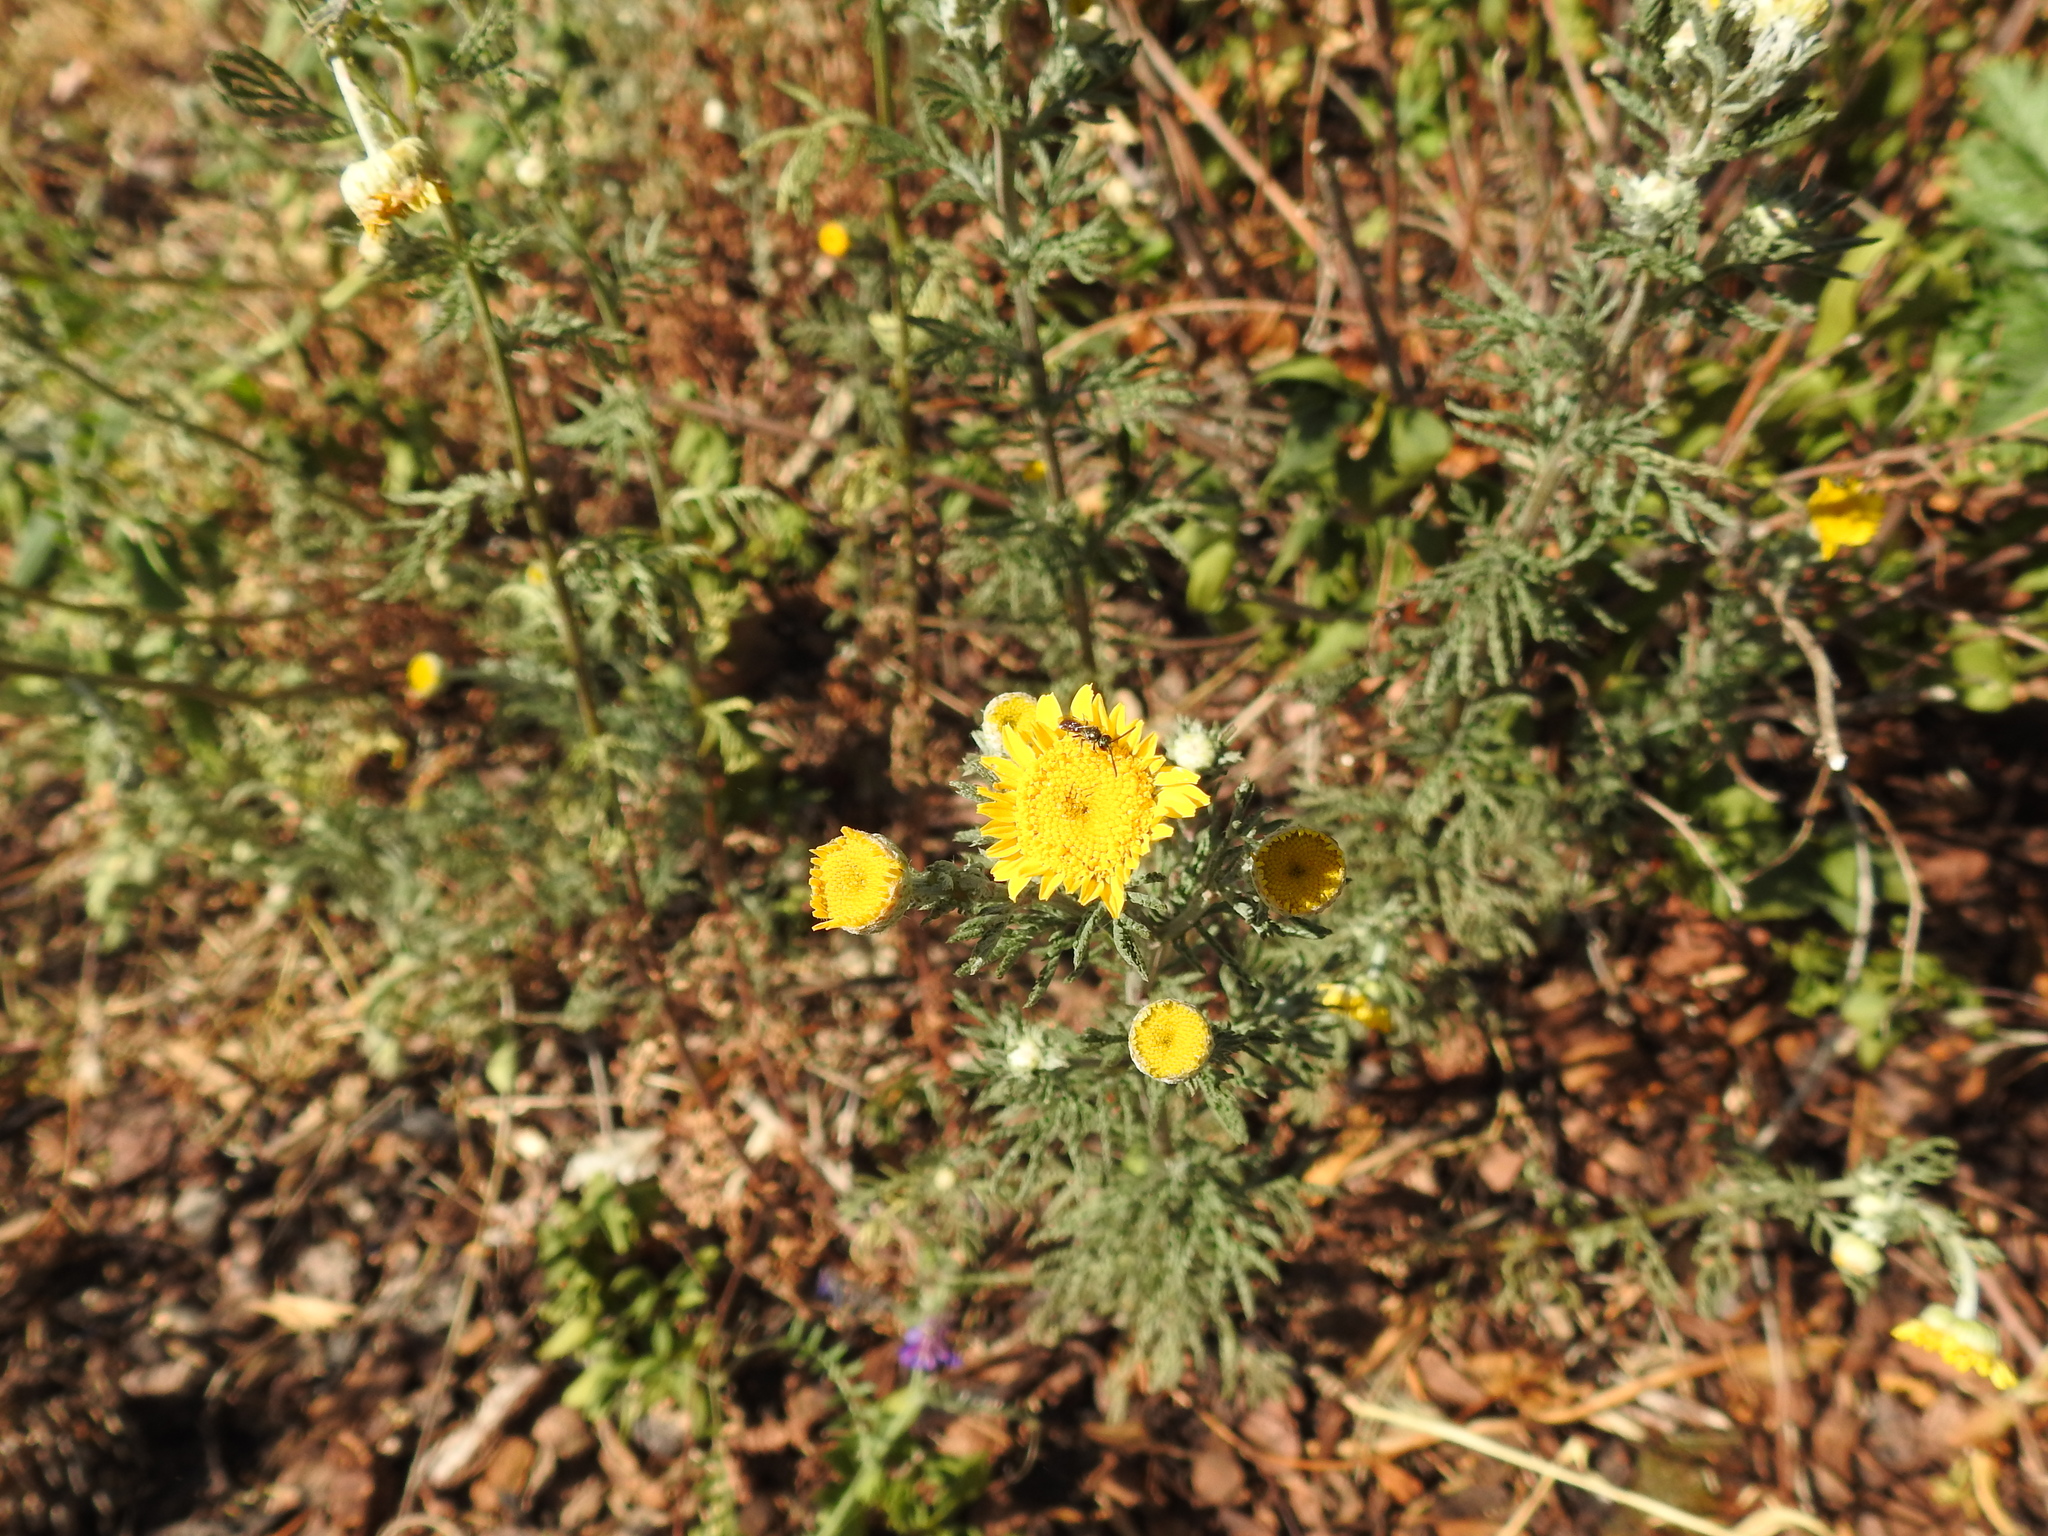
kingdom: Plantae
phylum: Tracheophyta
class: Magnoliopsida
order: Asterales
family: Asteraceae
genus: Cota
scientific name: Cota tinctoria
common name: Golden chamomile
